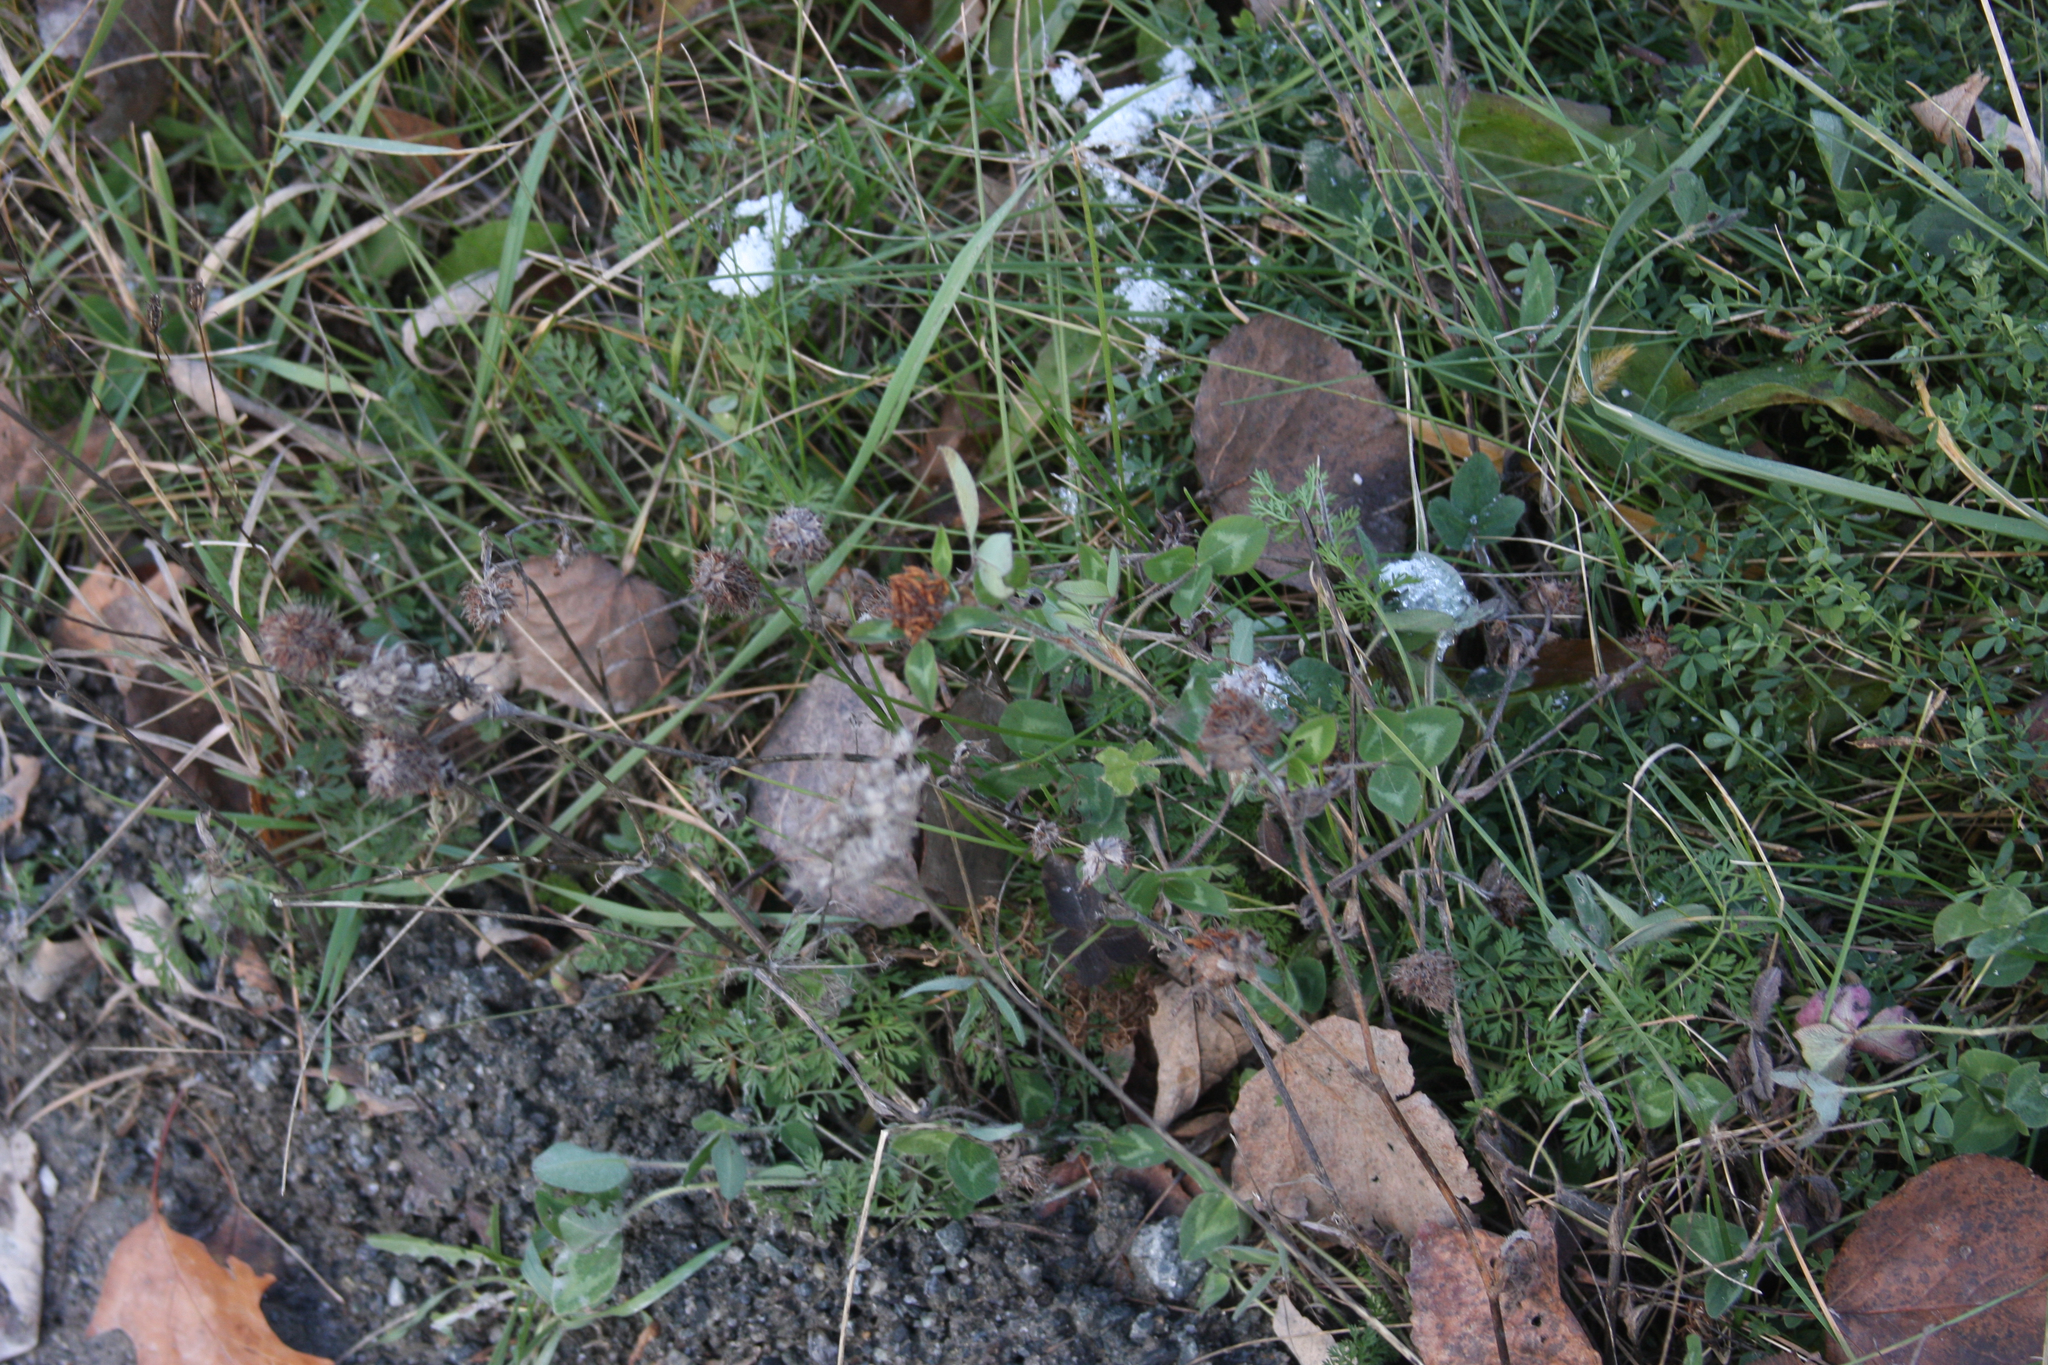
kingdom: Plantae
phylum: Tracheophyta
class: Magnoliopsida
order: Fabales
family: Fabaceae
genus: Trifolium
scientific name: Trifolium pratense
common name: Red clover
